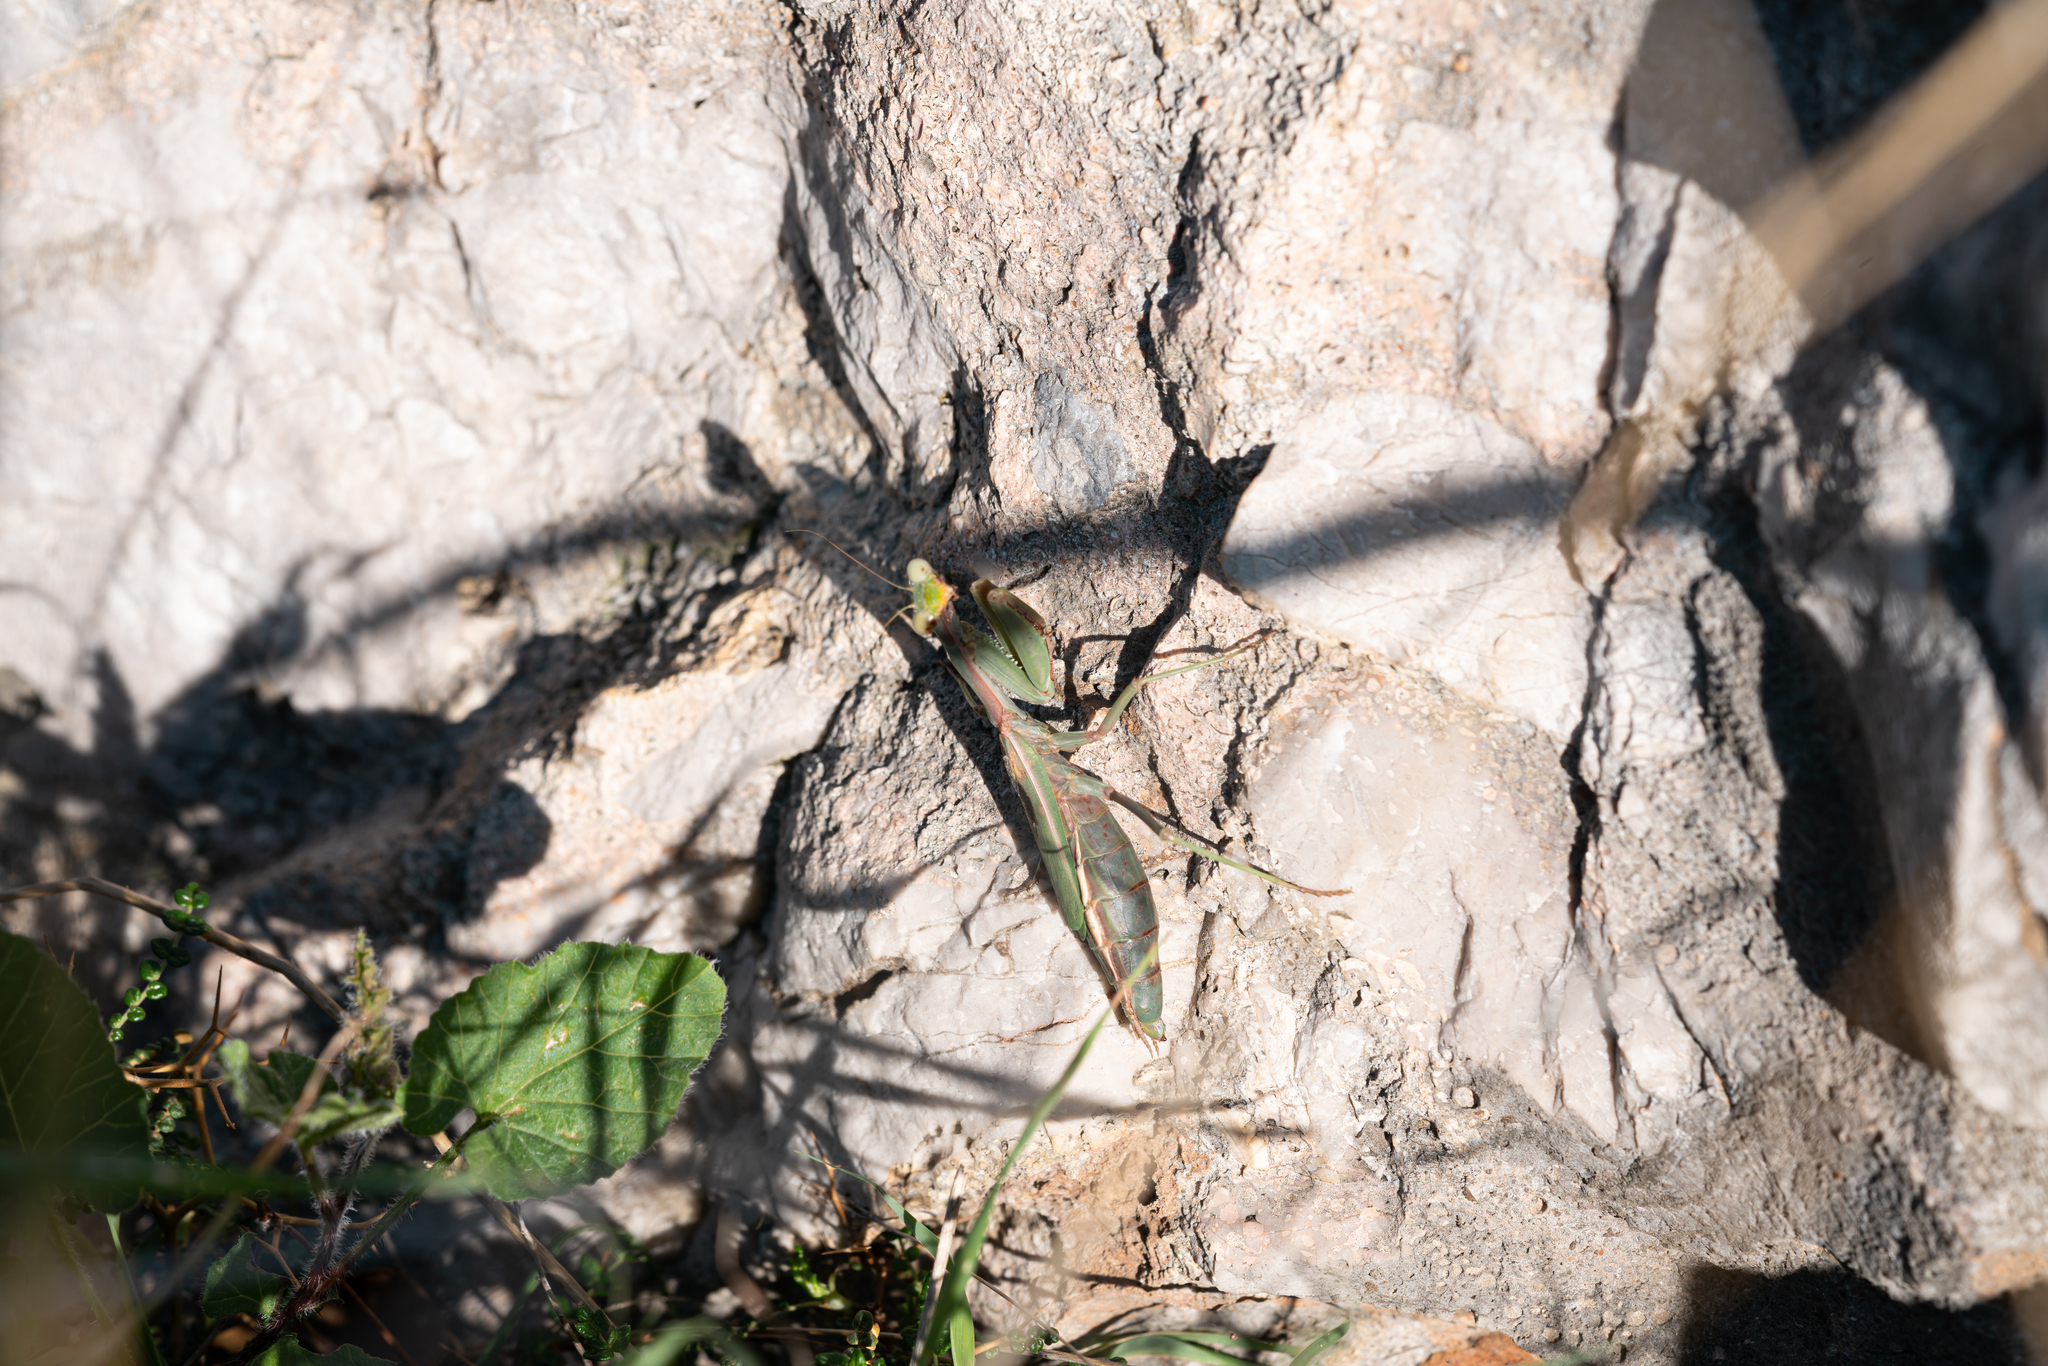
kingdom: Animalia
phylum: Arthropoda
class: Insecta
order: Mantodea
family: Eremiaphilidae
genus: Iris
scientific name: Iris oratoria
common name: Mediterranean mantis
